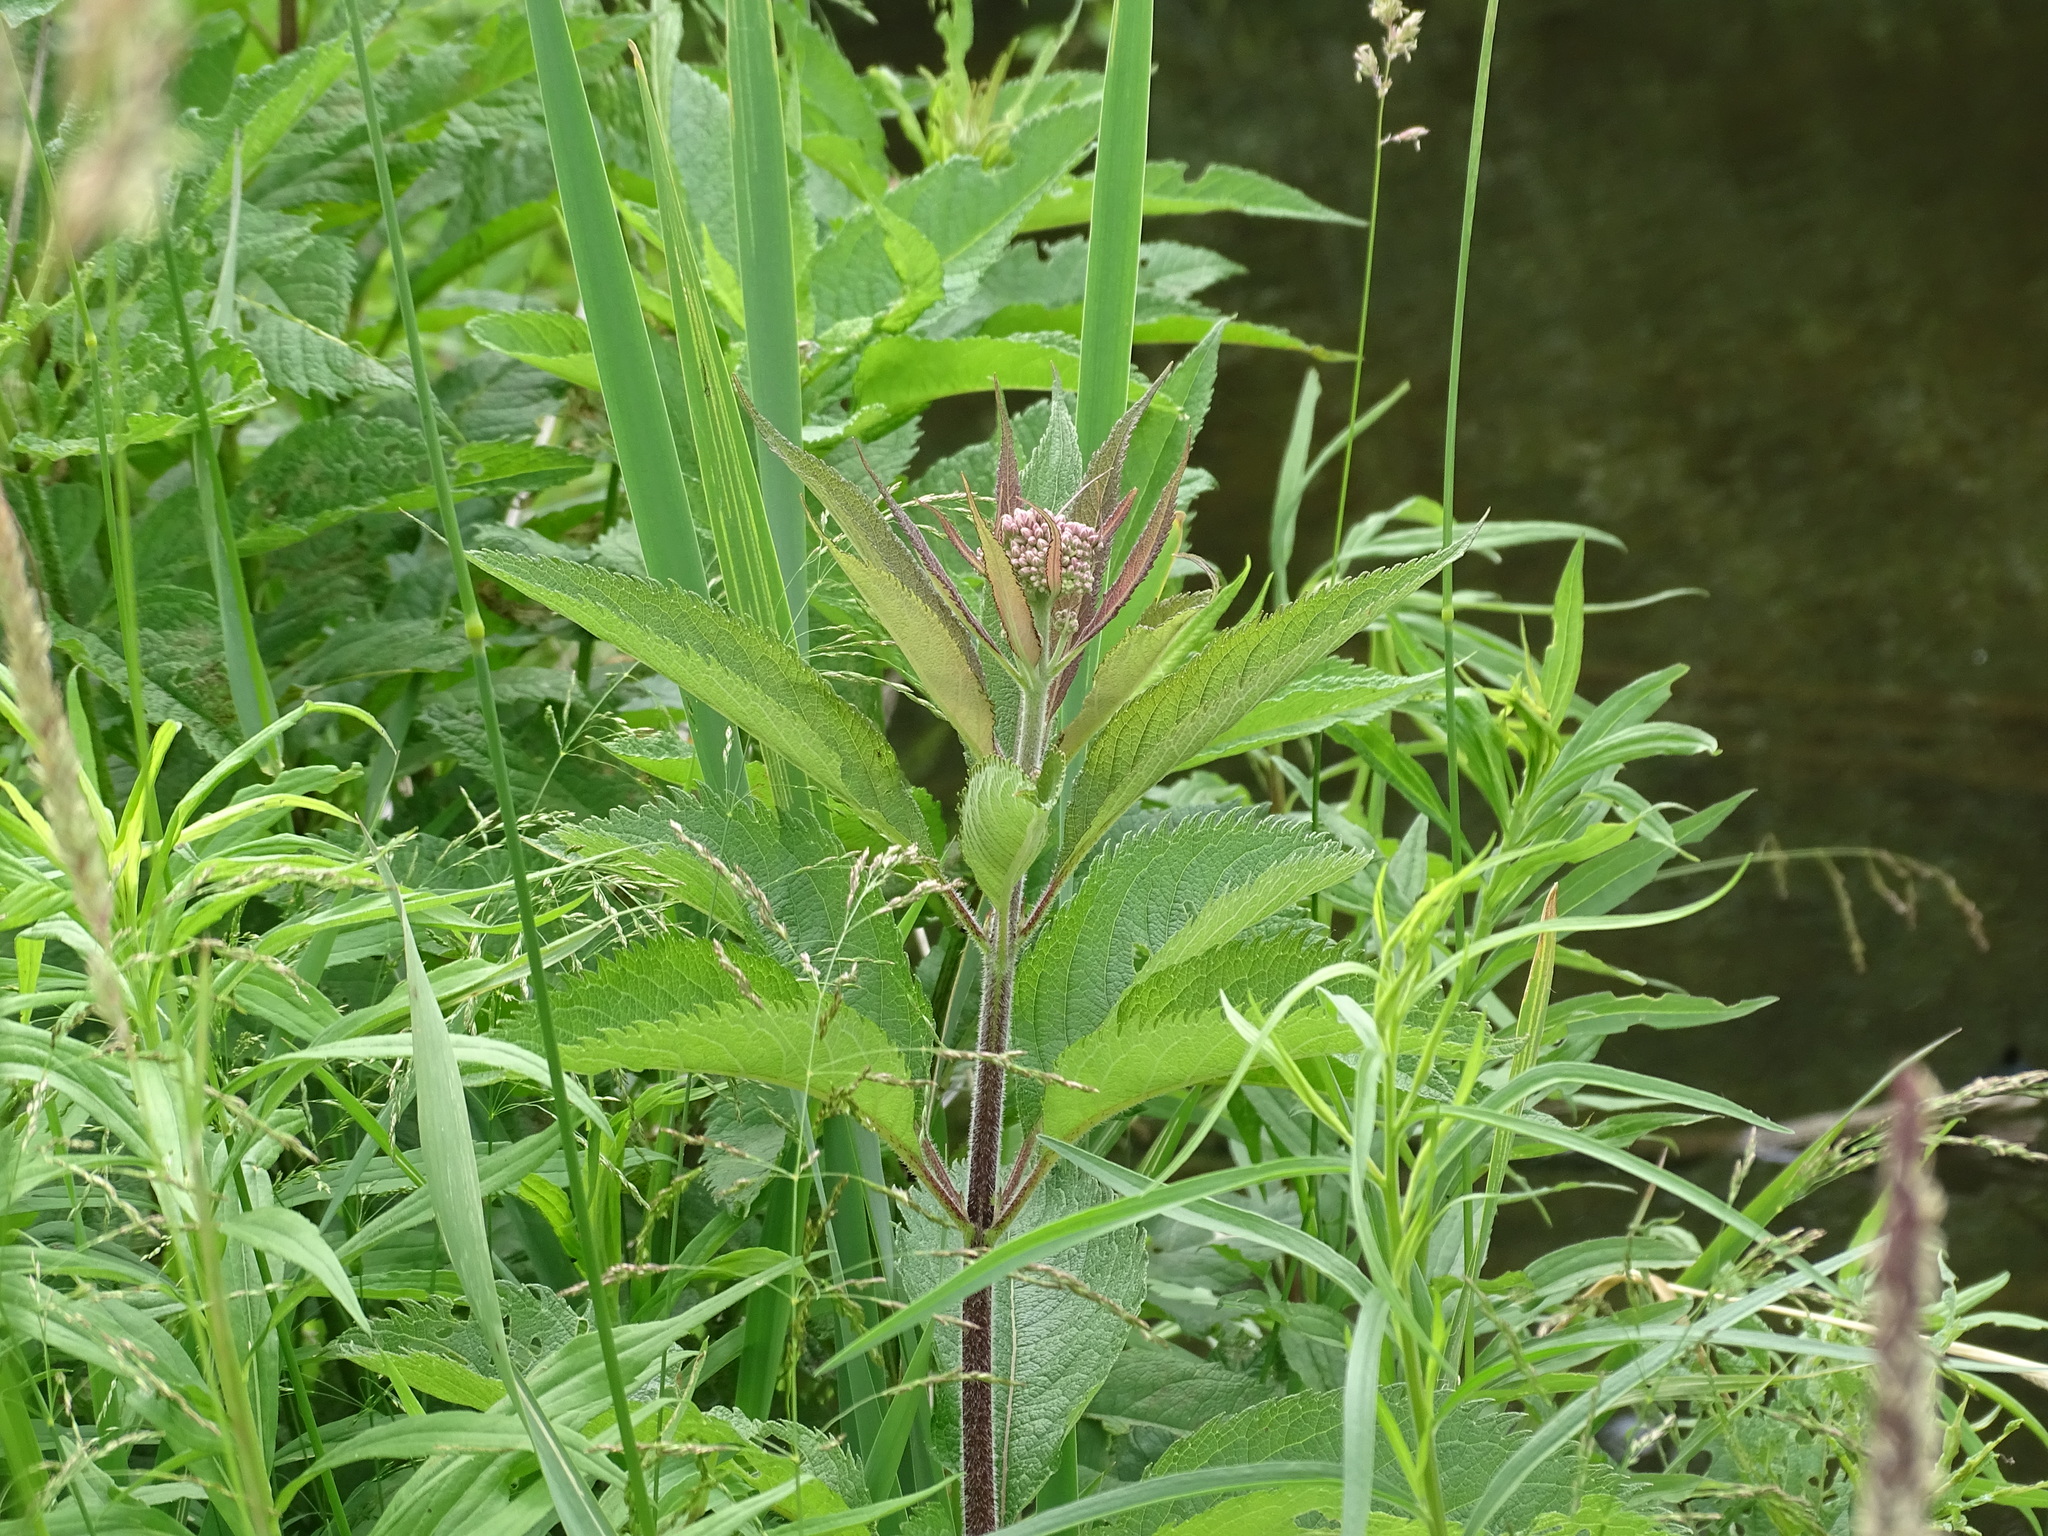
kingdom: Plantae
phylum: Tracheophyta
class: Magnoliopsida
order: Asterales
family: Asteraceae
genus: Eutrochium
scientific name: Eutrochium maculatum
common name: Spotted joe pye weed
